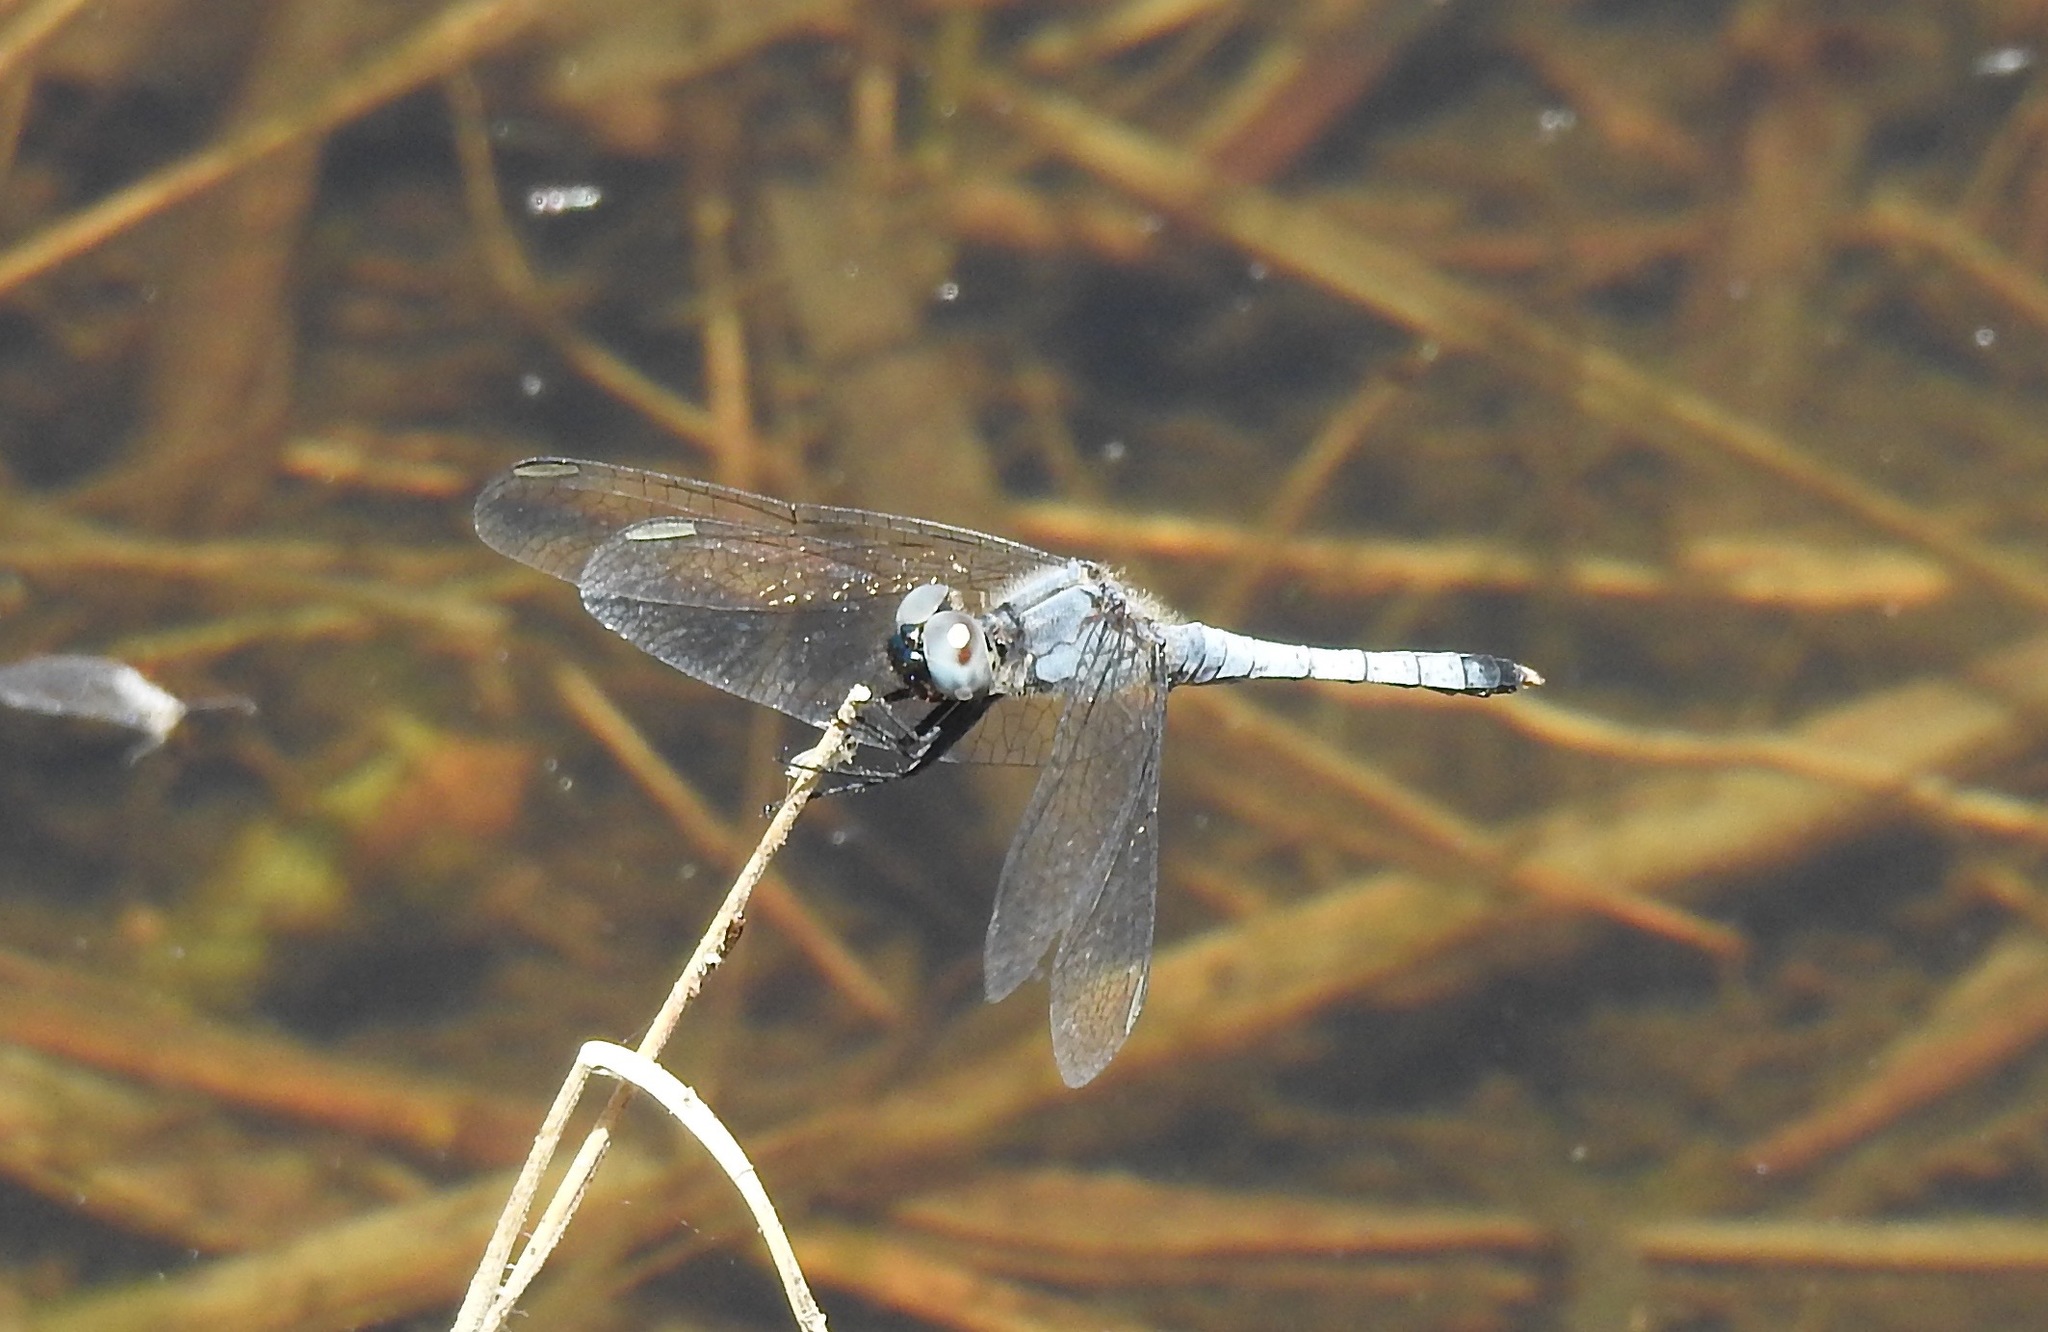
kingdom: Animalia
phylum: Arthropoda
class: Insecta
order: Odonata
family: Libellulidae
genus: Erythrodiplax
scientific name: Erythrodiplax minuscula
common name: Little blue dragonlet
